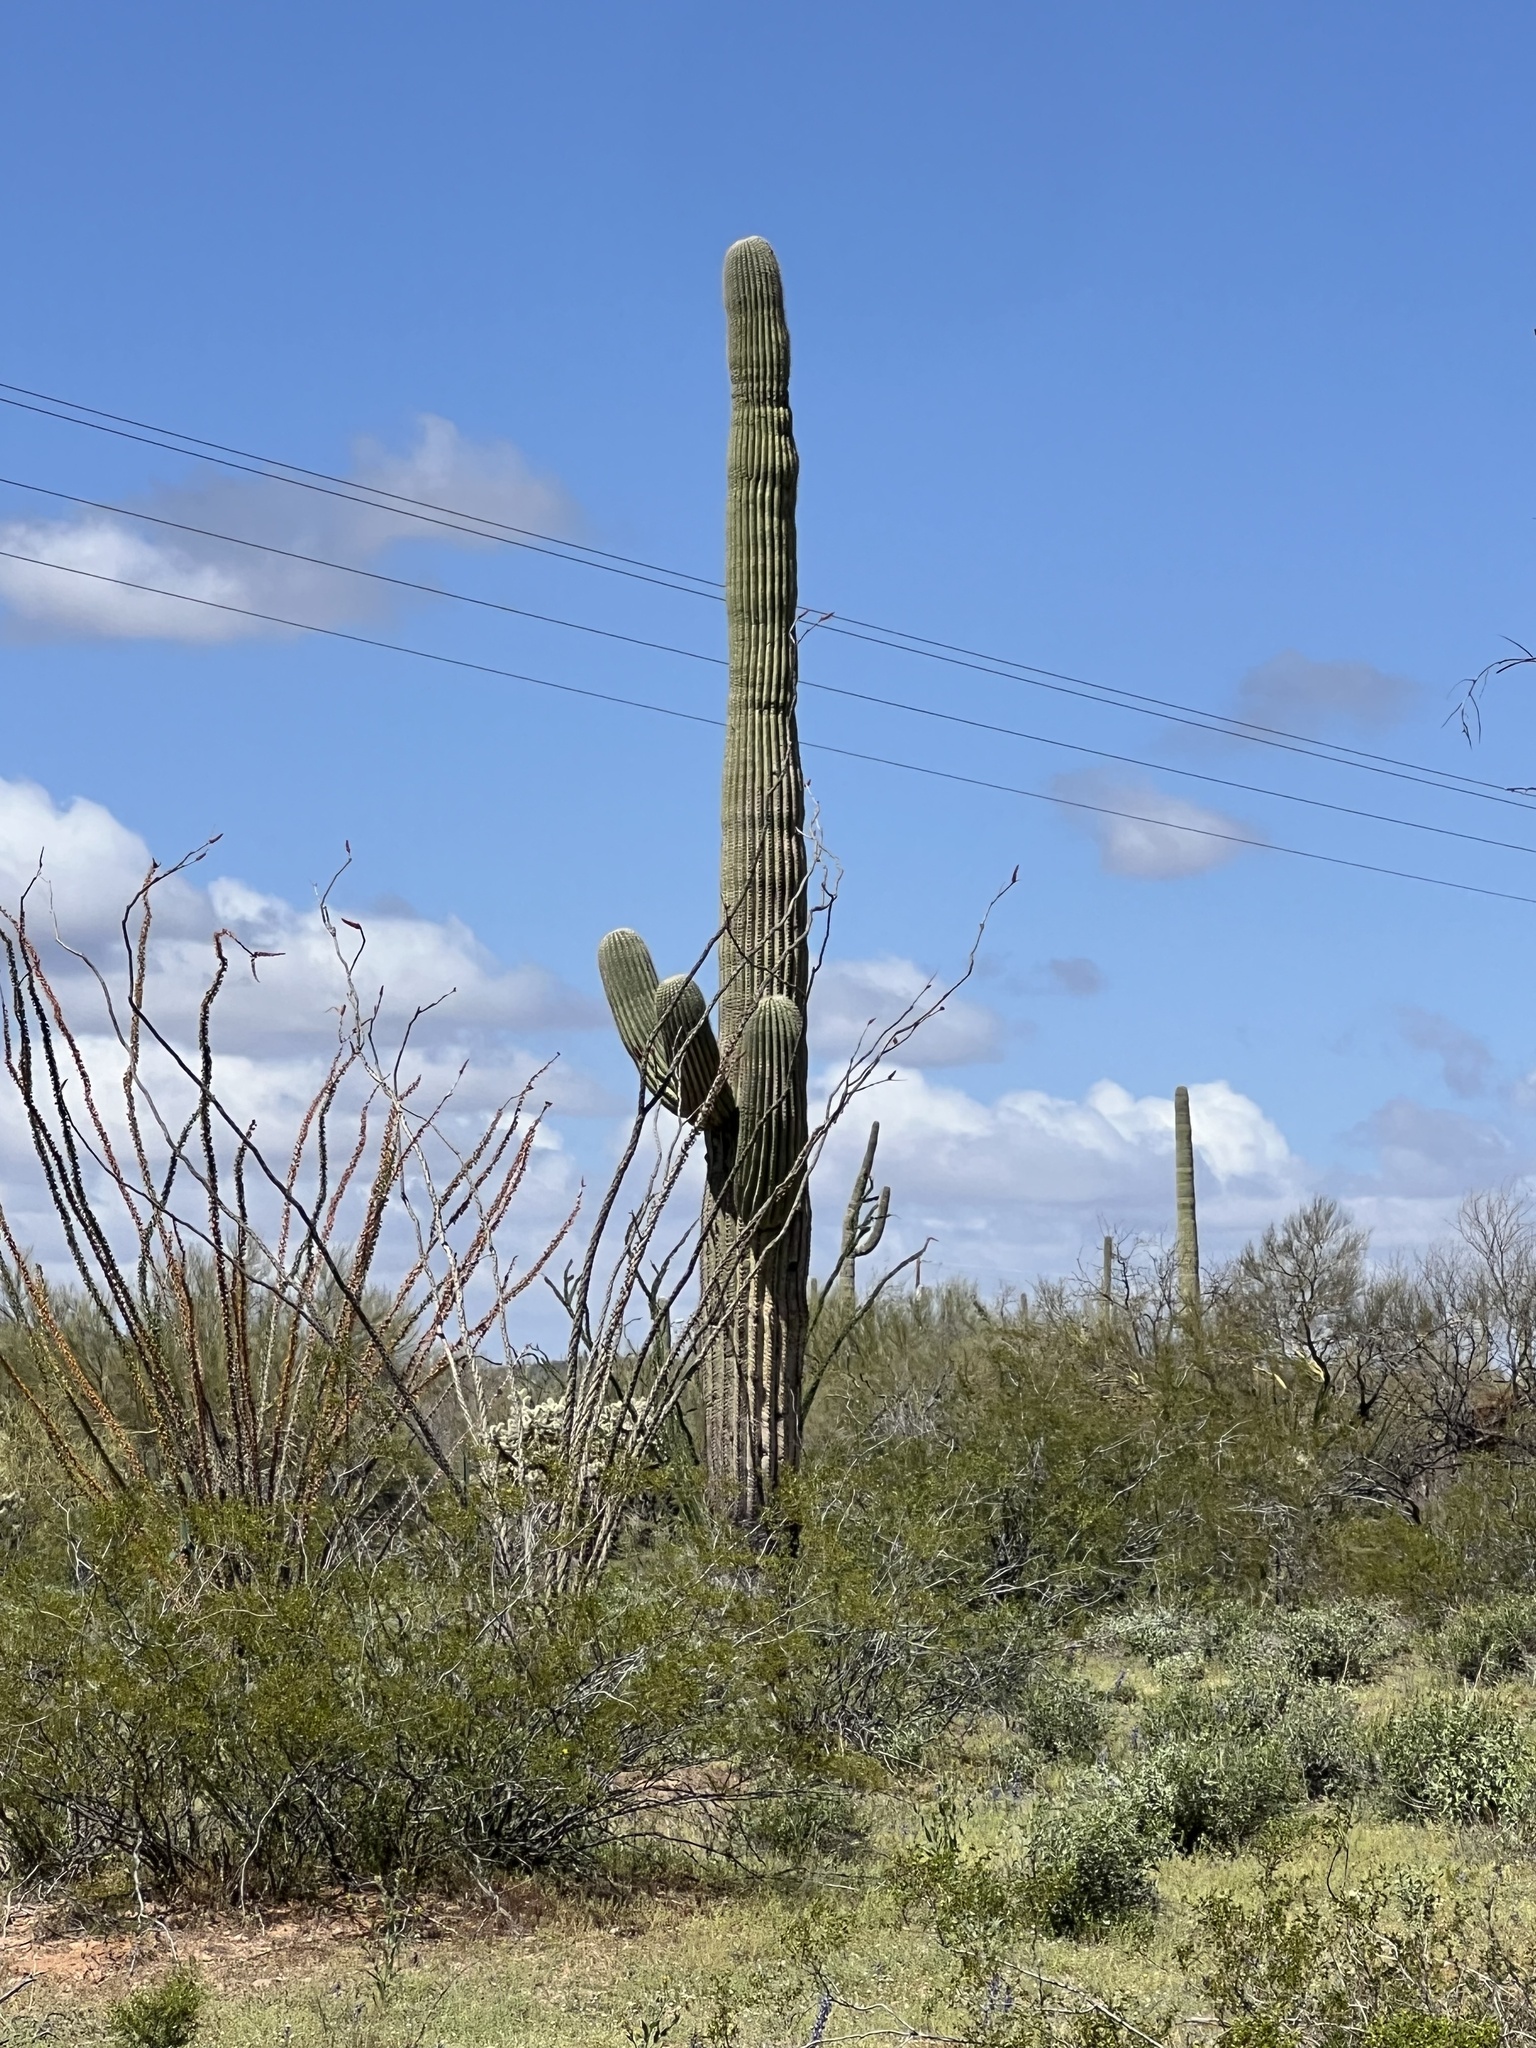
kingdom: Plantae
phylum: Tracheophyta
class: Magnoliopsida
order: Caryophyllales
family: Cactaceae
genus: Carnegiea
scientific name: Carnegiea gigantea
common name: Saguaro
